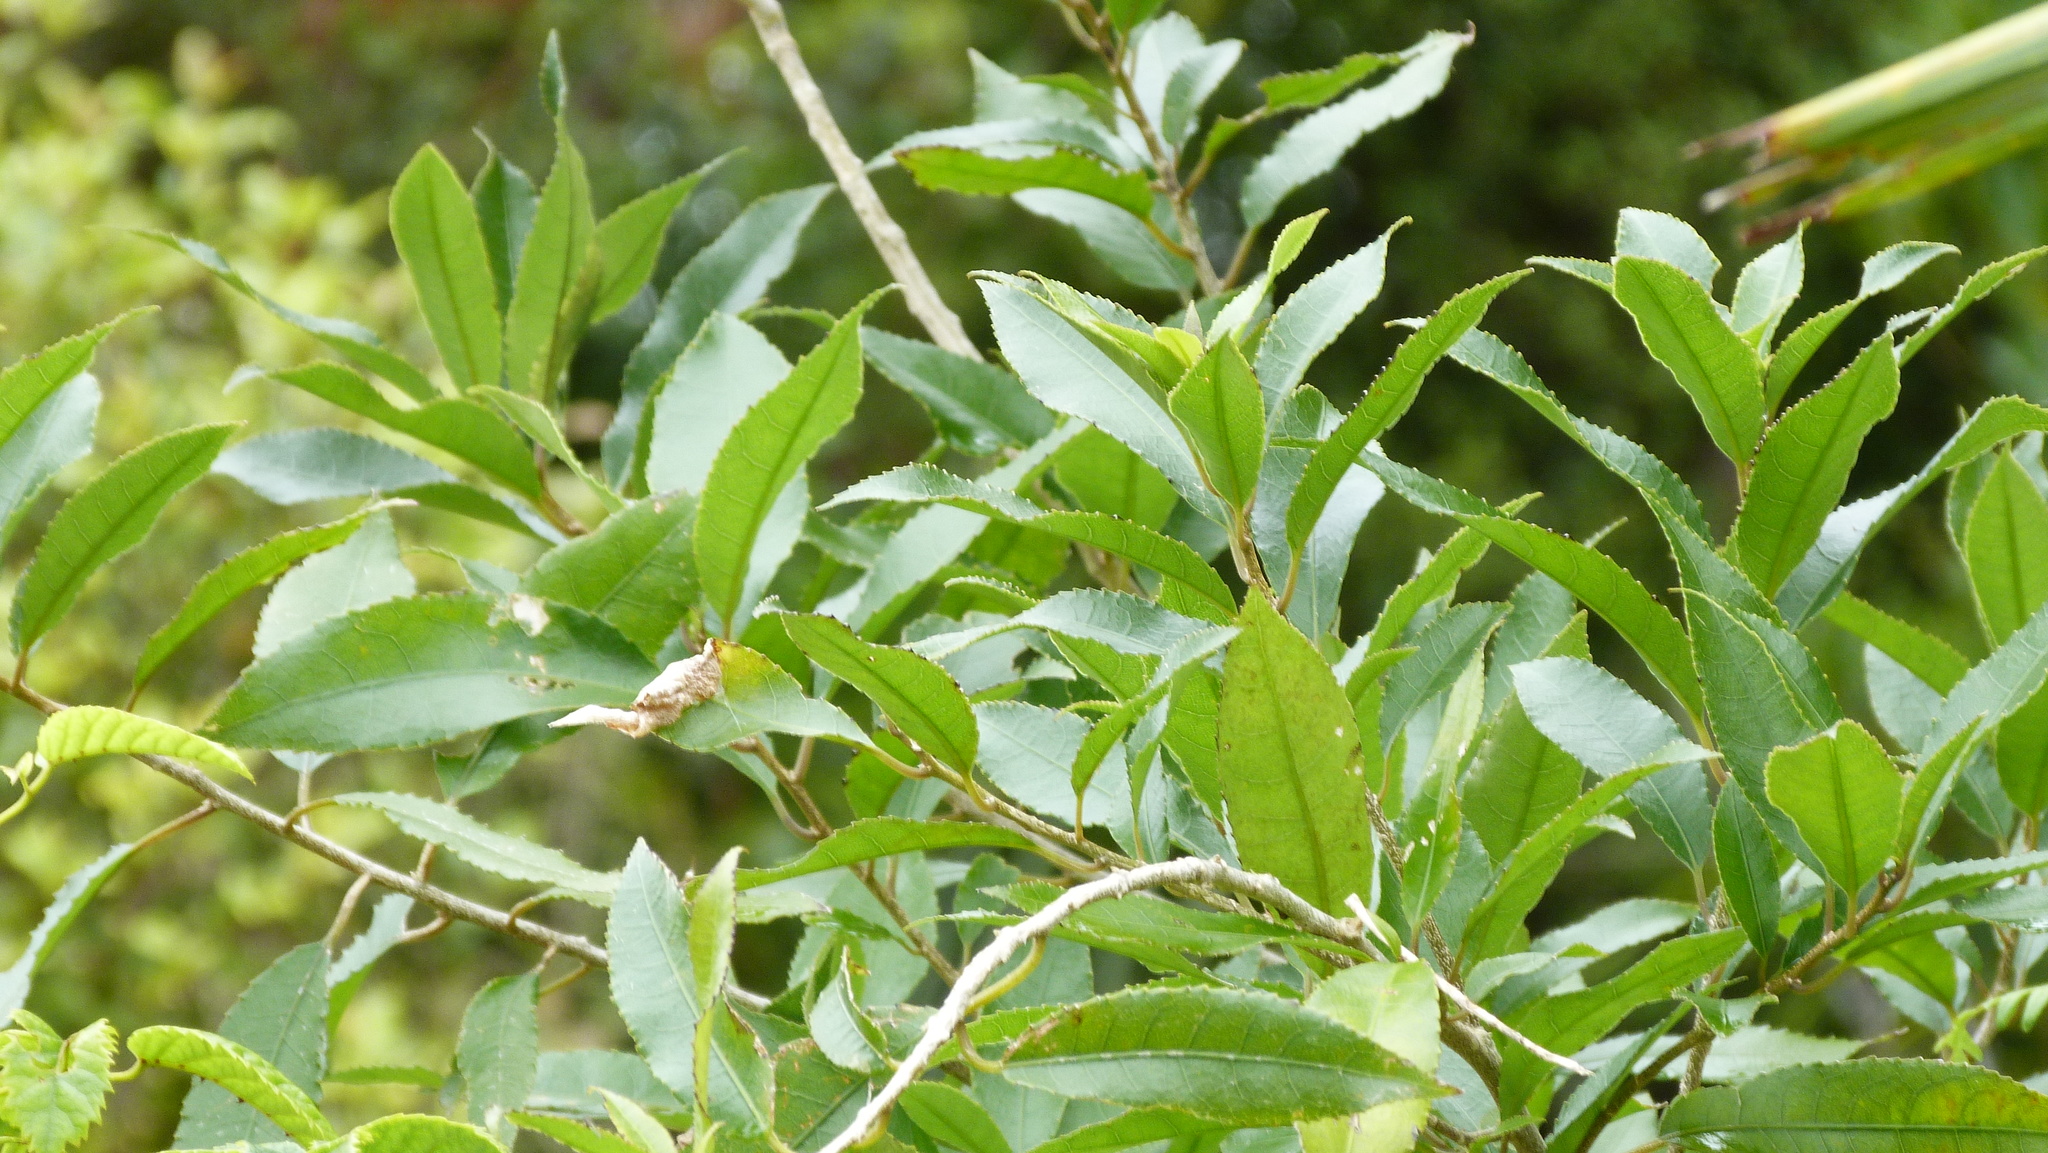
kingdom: Plantae
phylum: Tracheophyta
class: Magnoliopsida
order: Malpighiales
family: Violaceae
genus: Melicytus
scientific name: Melicytus ramiflorus
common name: Mahoe
